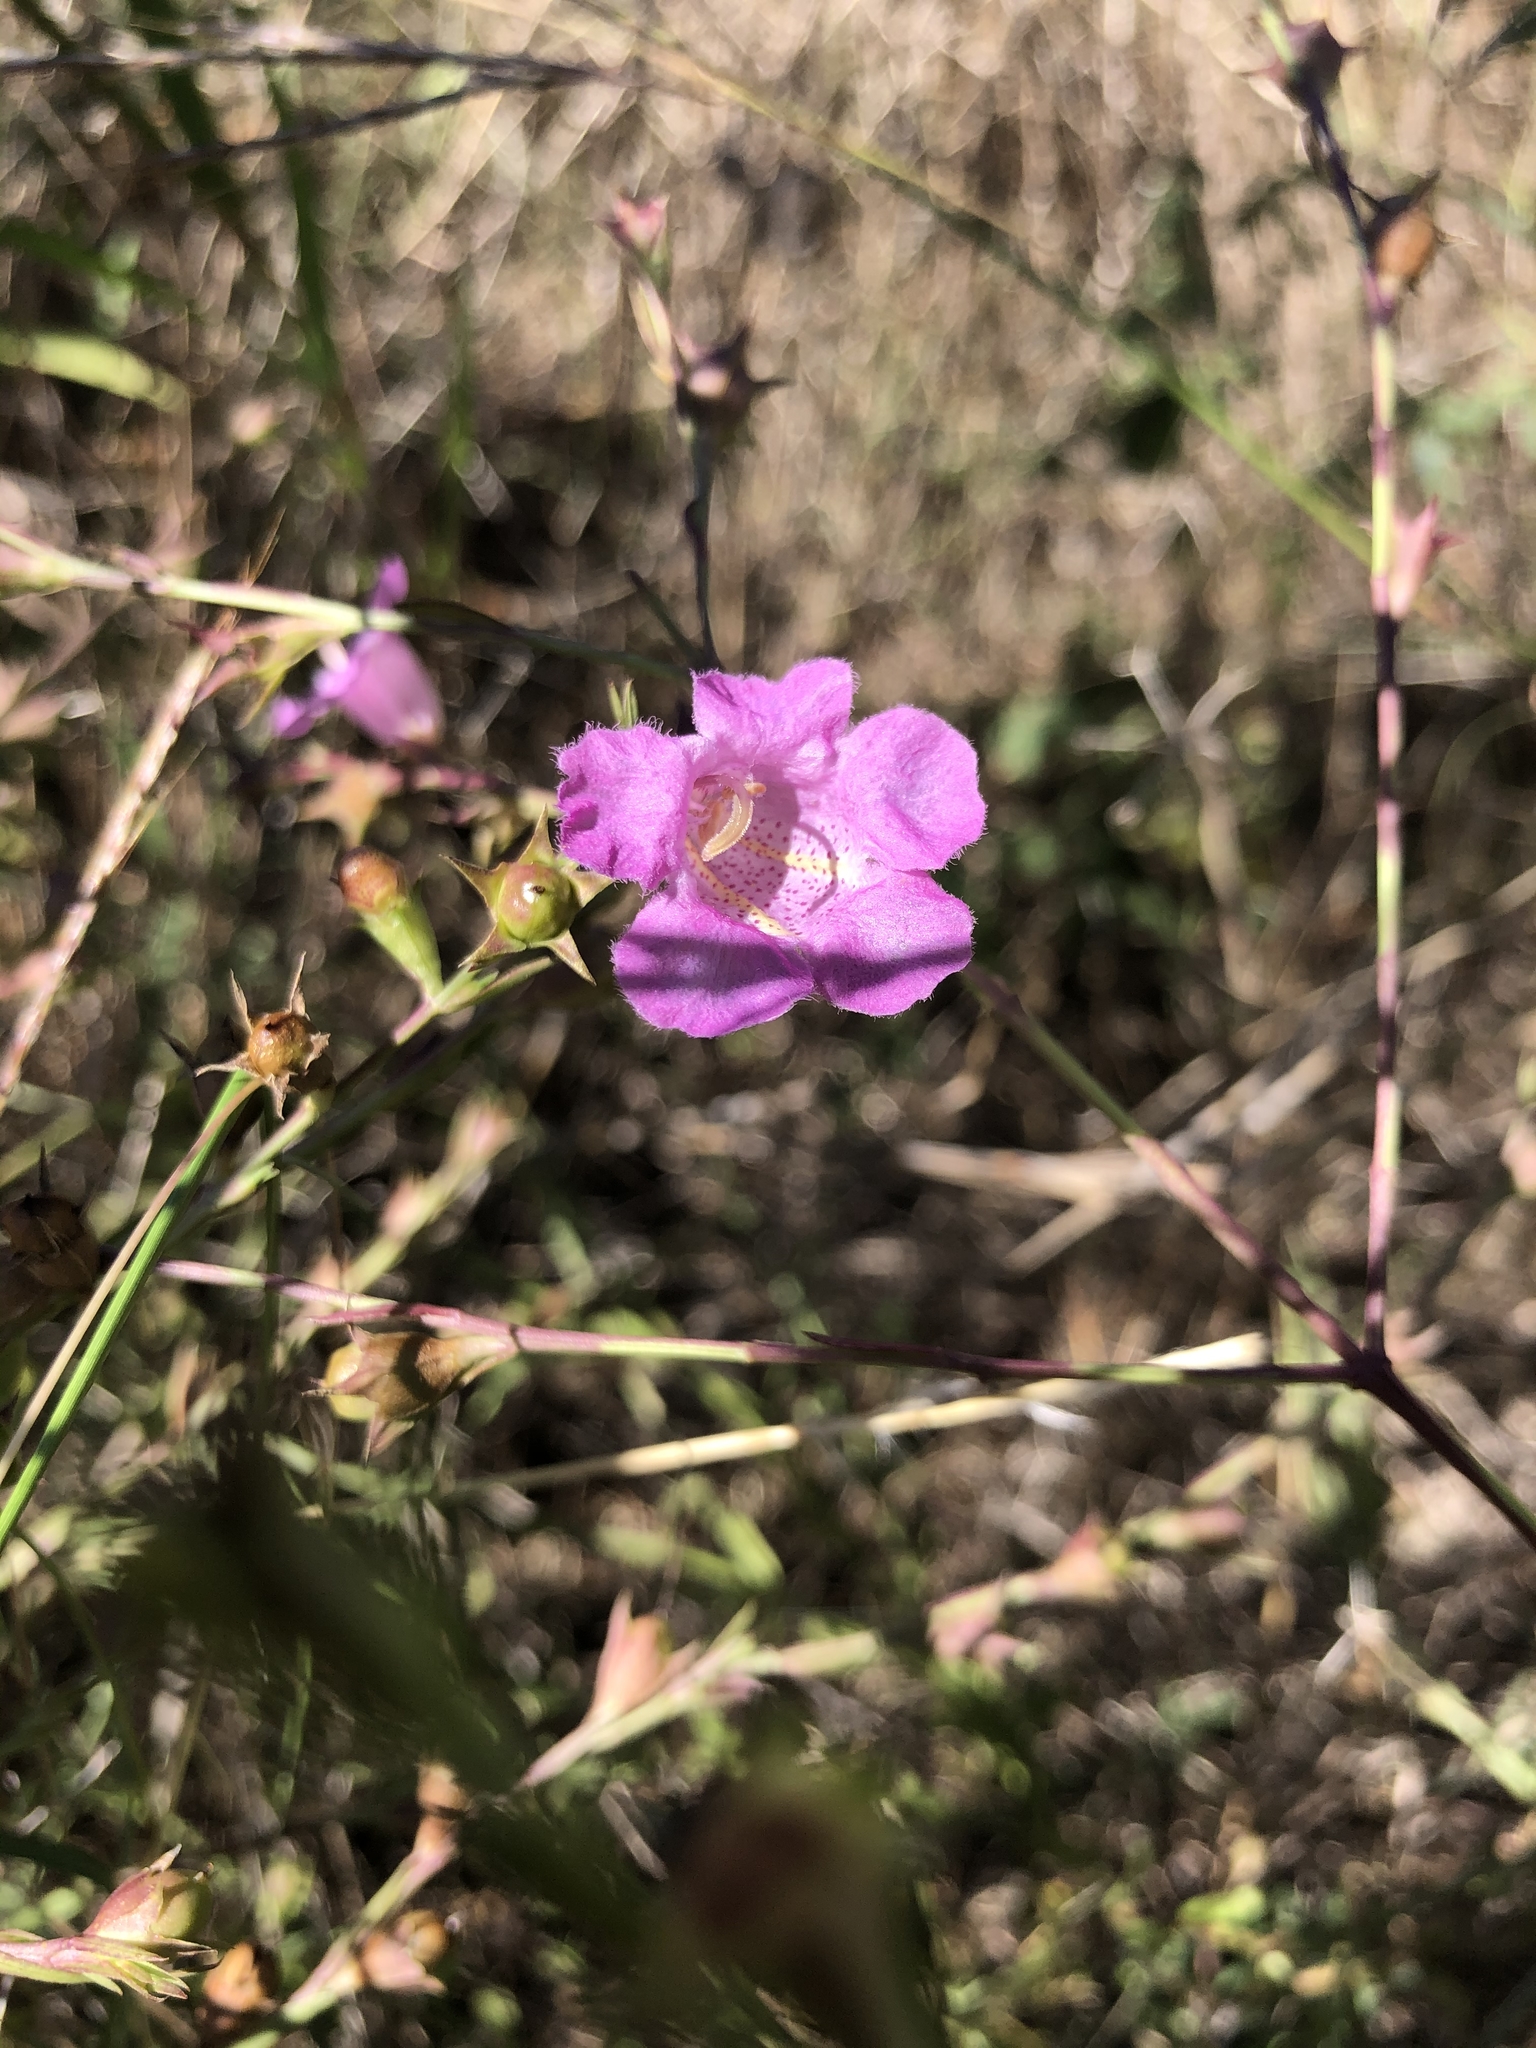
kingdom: Plantae
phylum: Tracheophyta
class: Magnoliopsida
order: Lamiales
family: Orobanchaceae
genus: Agalinis
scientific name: Agalinis heterophylla
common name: Prairie agalinis
